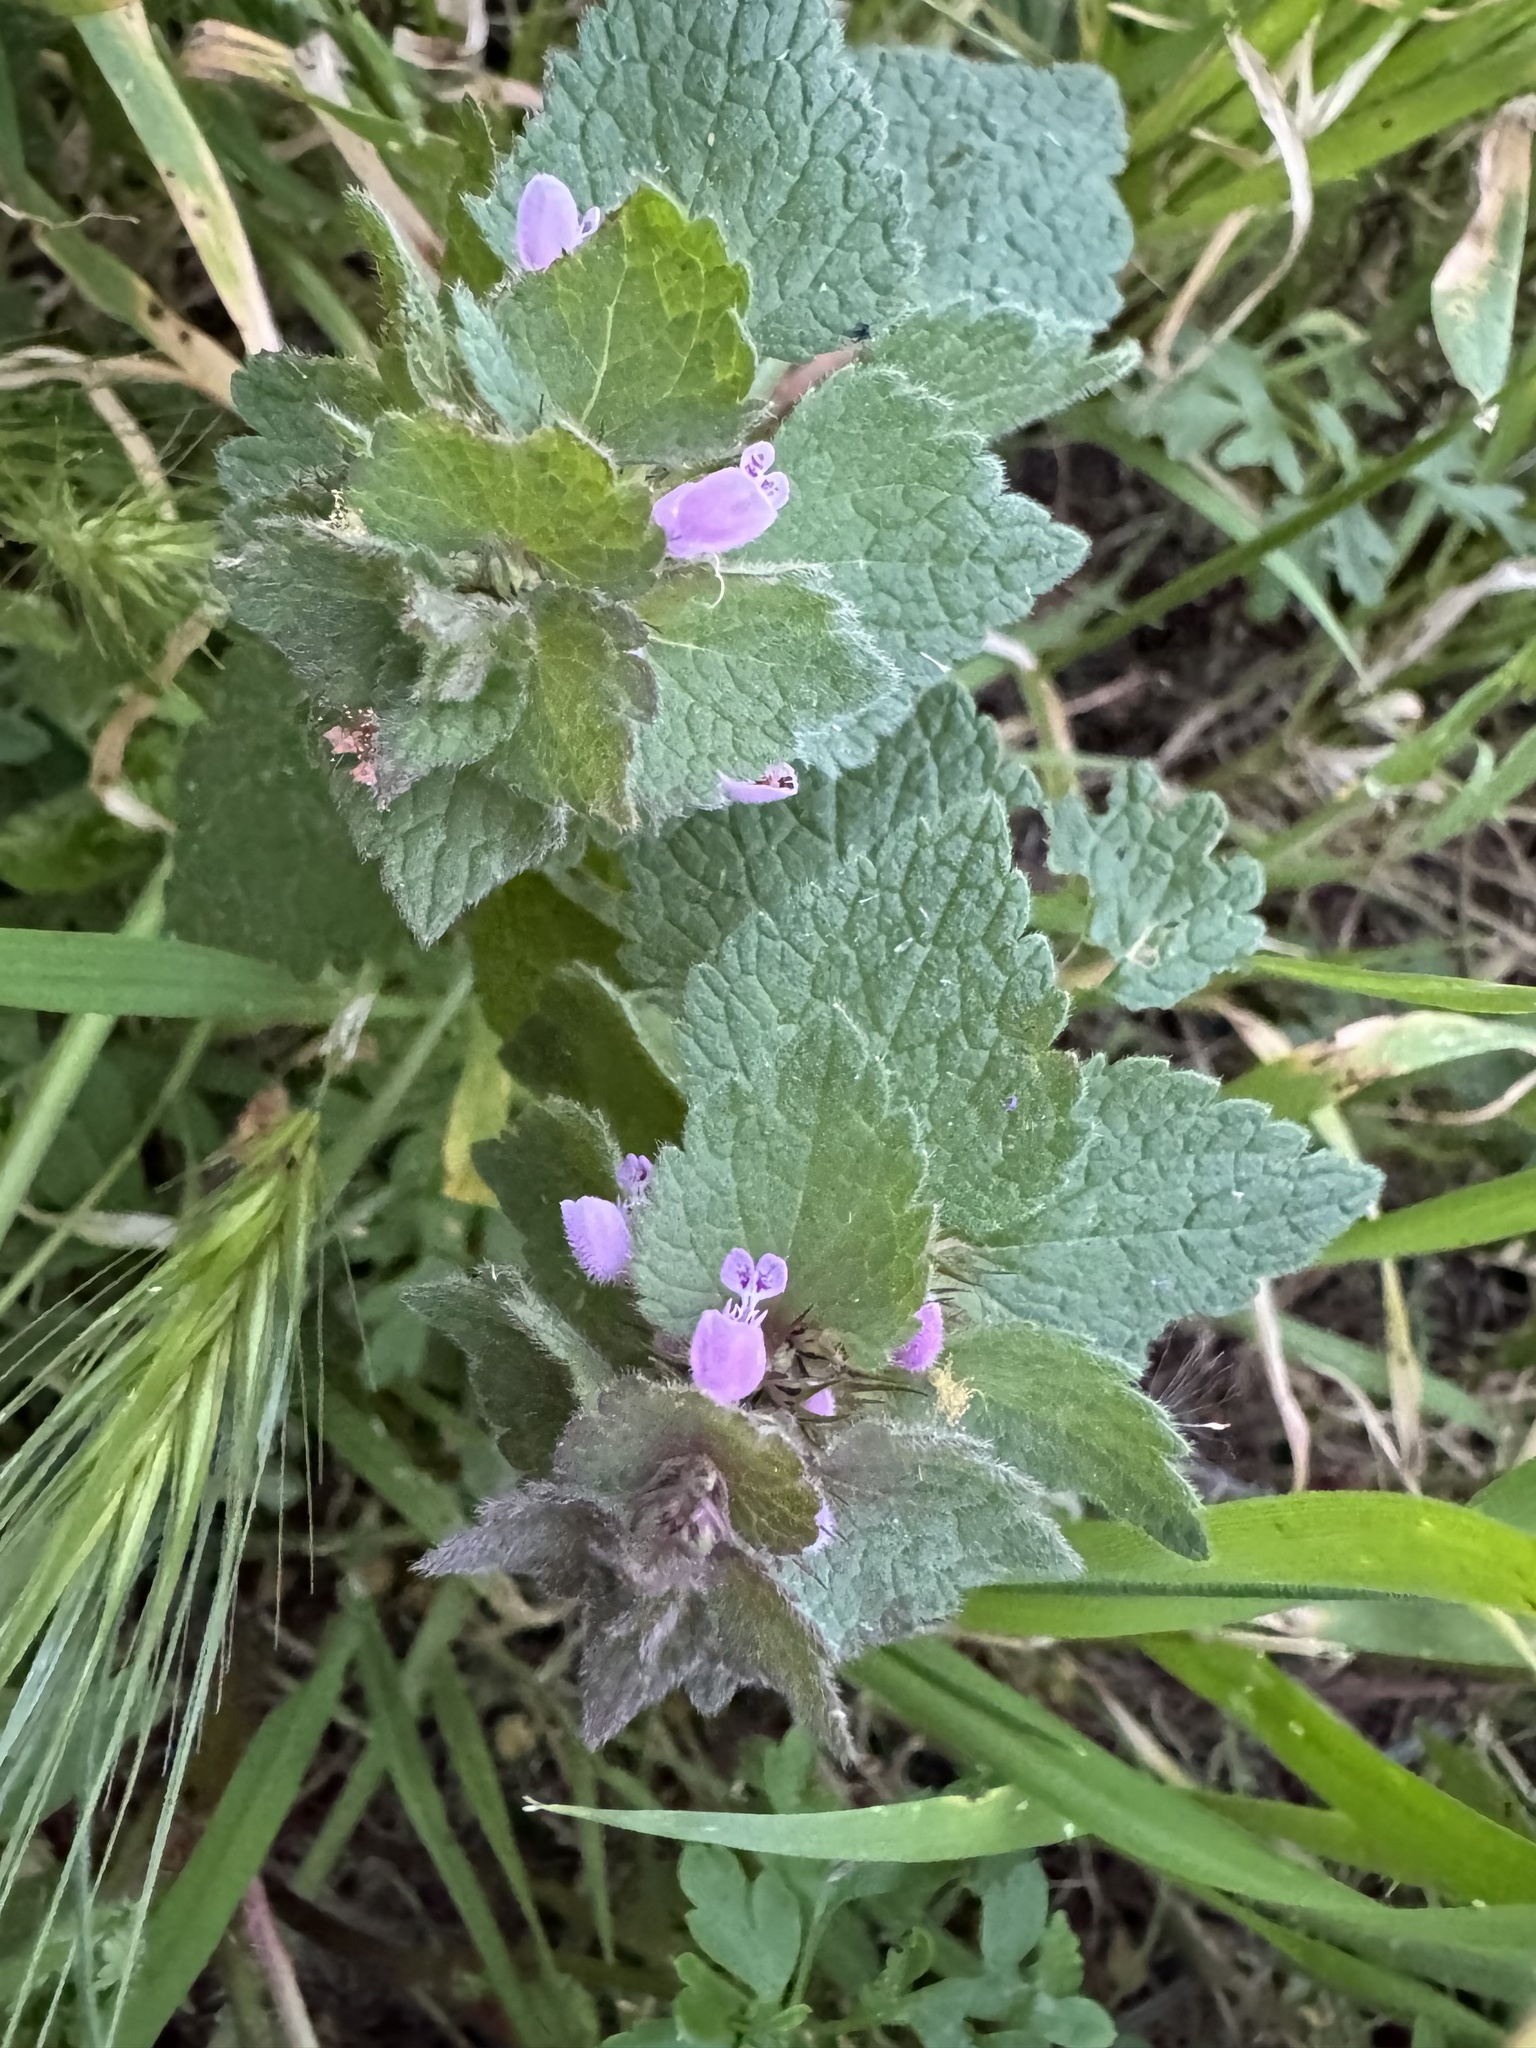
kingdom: Plantae
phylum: Tracheophyta
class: Magnoliopsida
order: Lamiales
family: Lamiaceae
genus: Lamium
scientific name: Lamium purpureum
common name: Red dead-nettle
